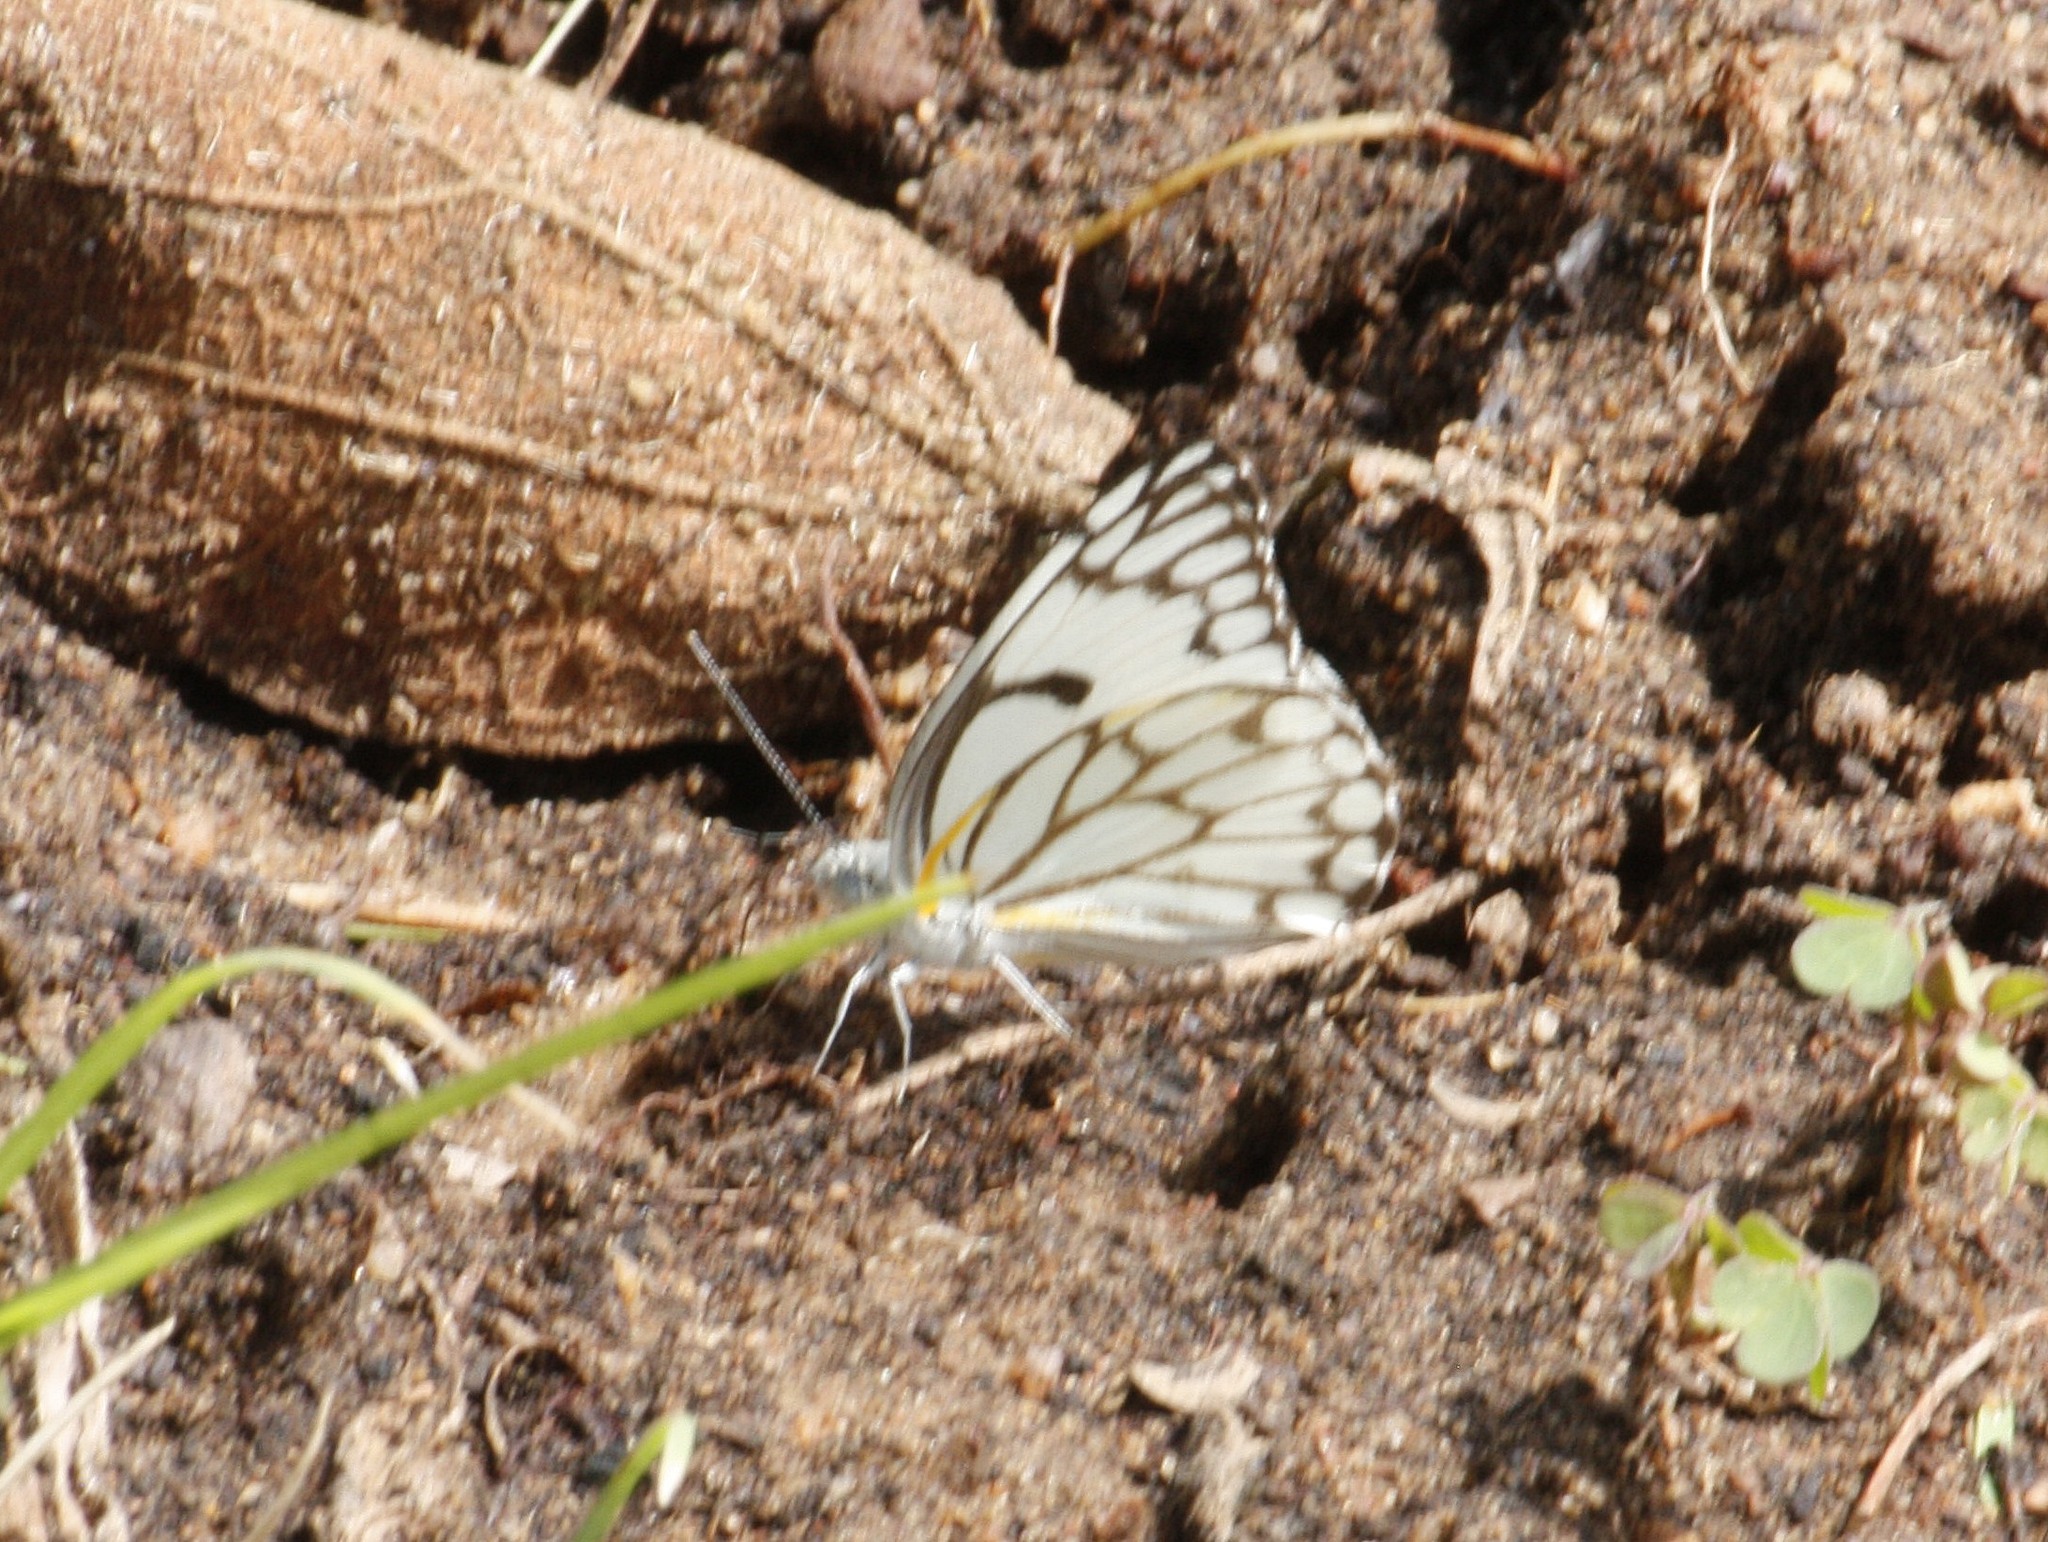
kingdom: Animalia
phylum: Arthropoda
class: Insecta
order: Lepidoptera
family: Pieridae
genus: Belenois
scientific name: Belenois aurota
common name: Brown-veined white
